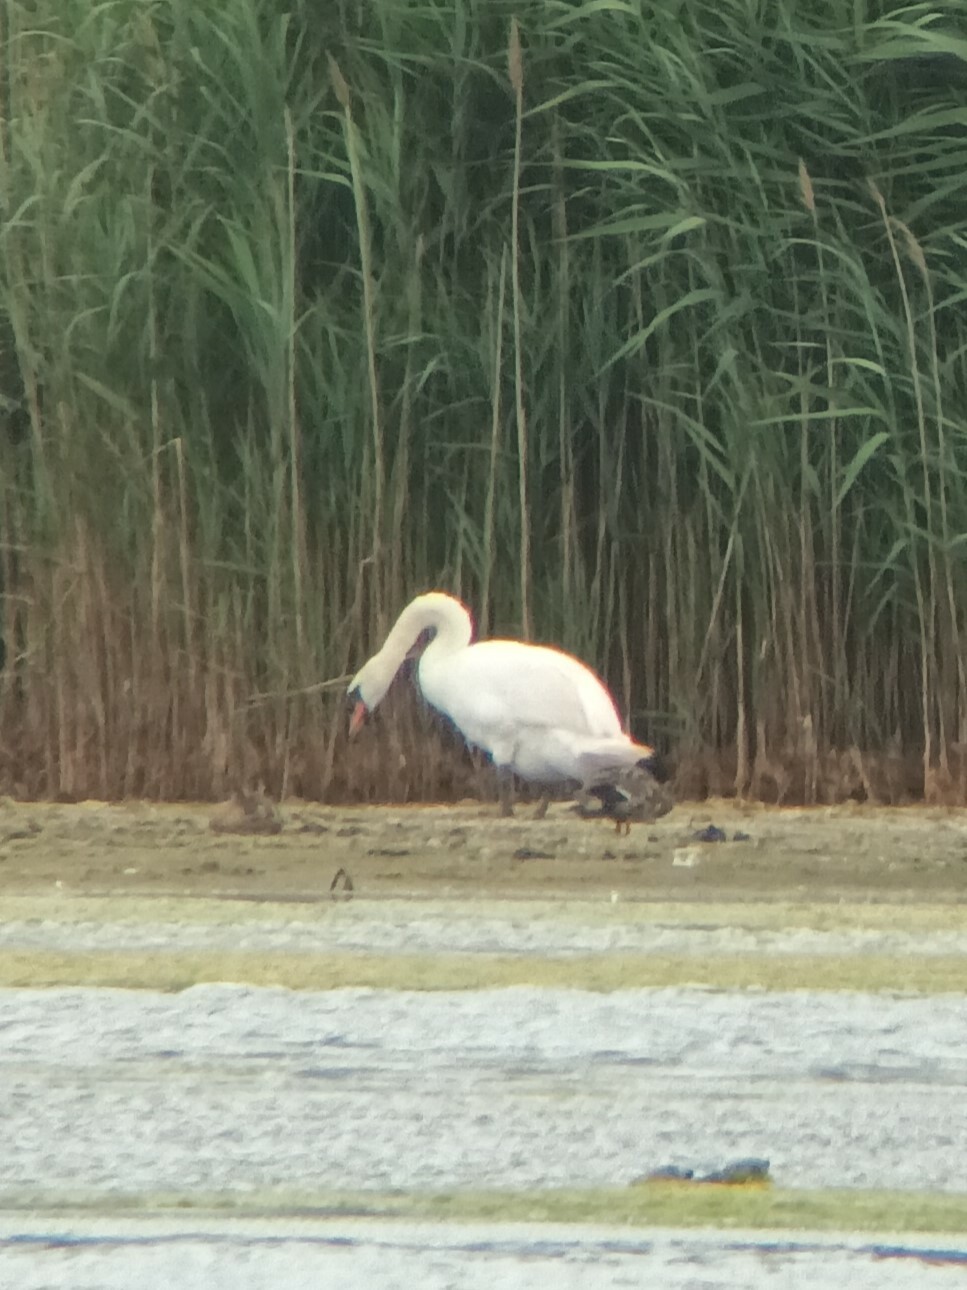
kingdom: Animalia
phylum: Chordata
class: Aves
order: Anseriformes
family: Anatidae
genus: Cygnus
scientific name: Cygnus olor
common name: Mute swan
